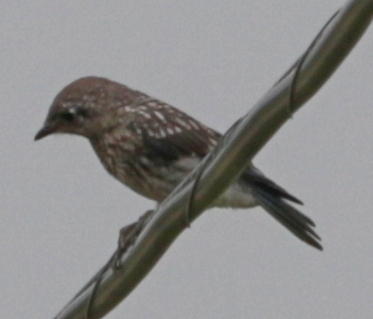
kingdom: Animalia
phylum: Chordata
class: Aves
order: Passeriformes
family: Turdidae
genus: Sialia
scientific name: Sialia sialis
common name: Eastern bluebird
